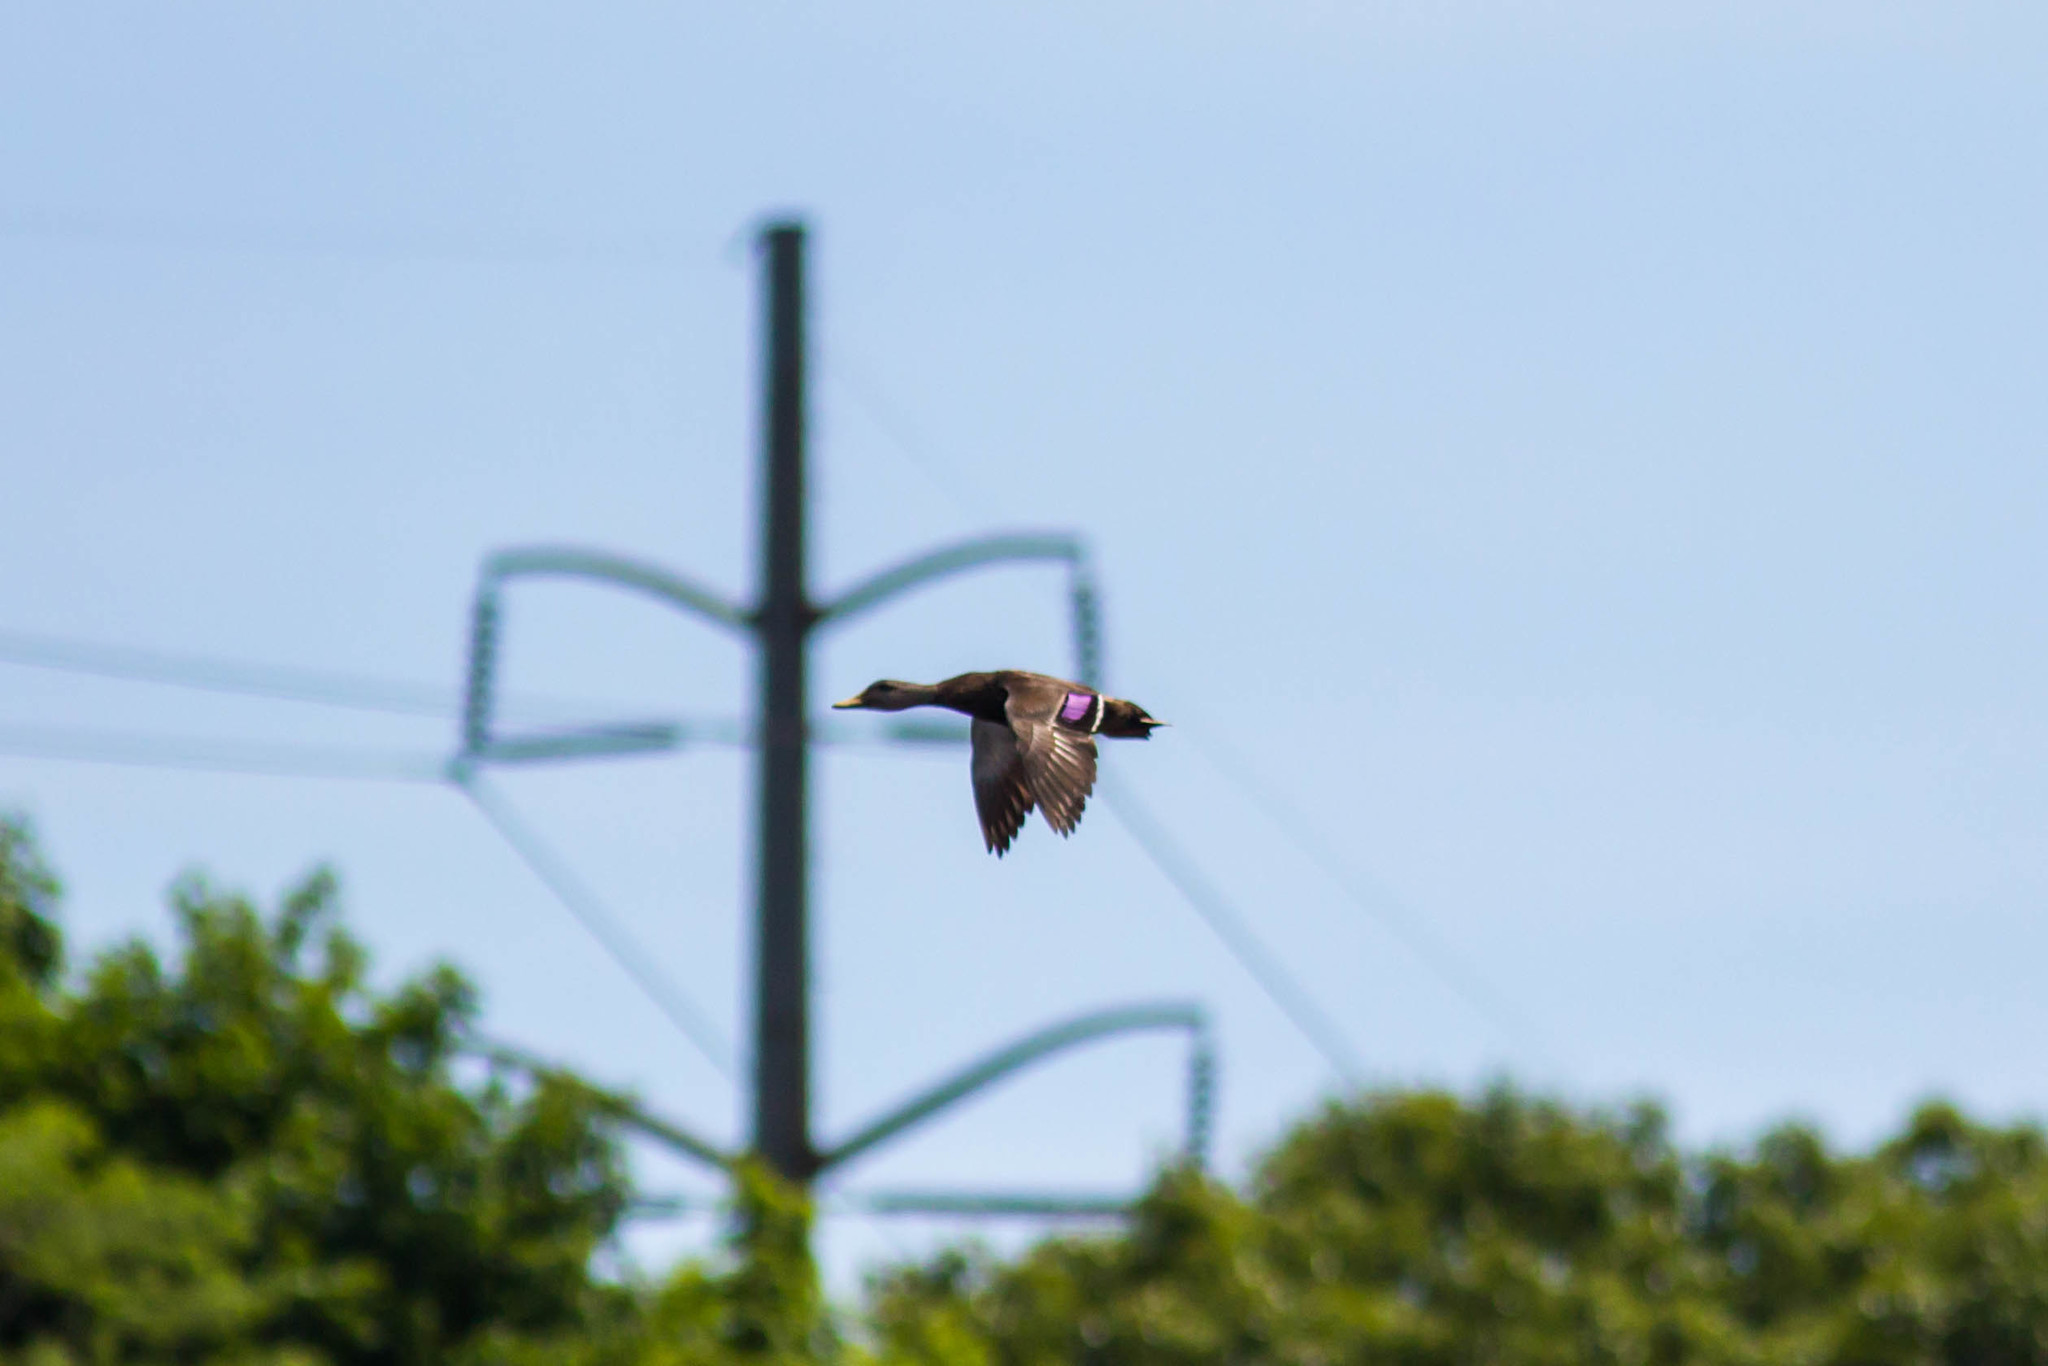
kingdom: Animalia
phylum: Chordata
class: Aves
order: Anseriformes
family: Anatidae
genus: Anas
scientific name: Anas rubripes
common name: American black duck
